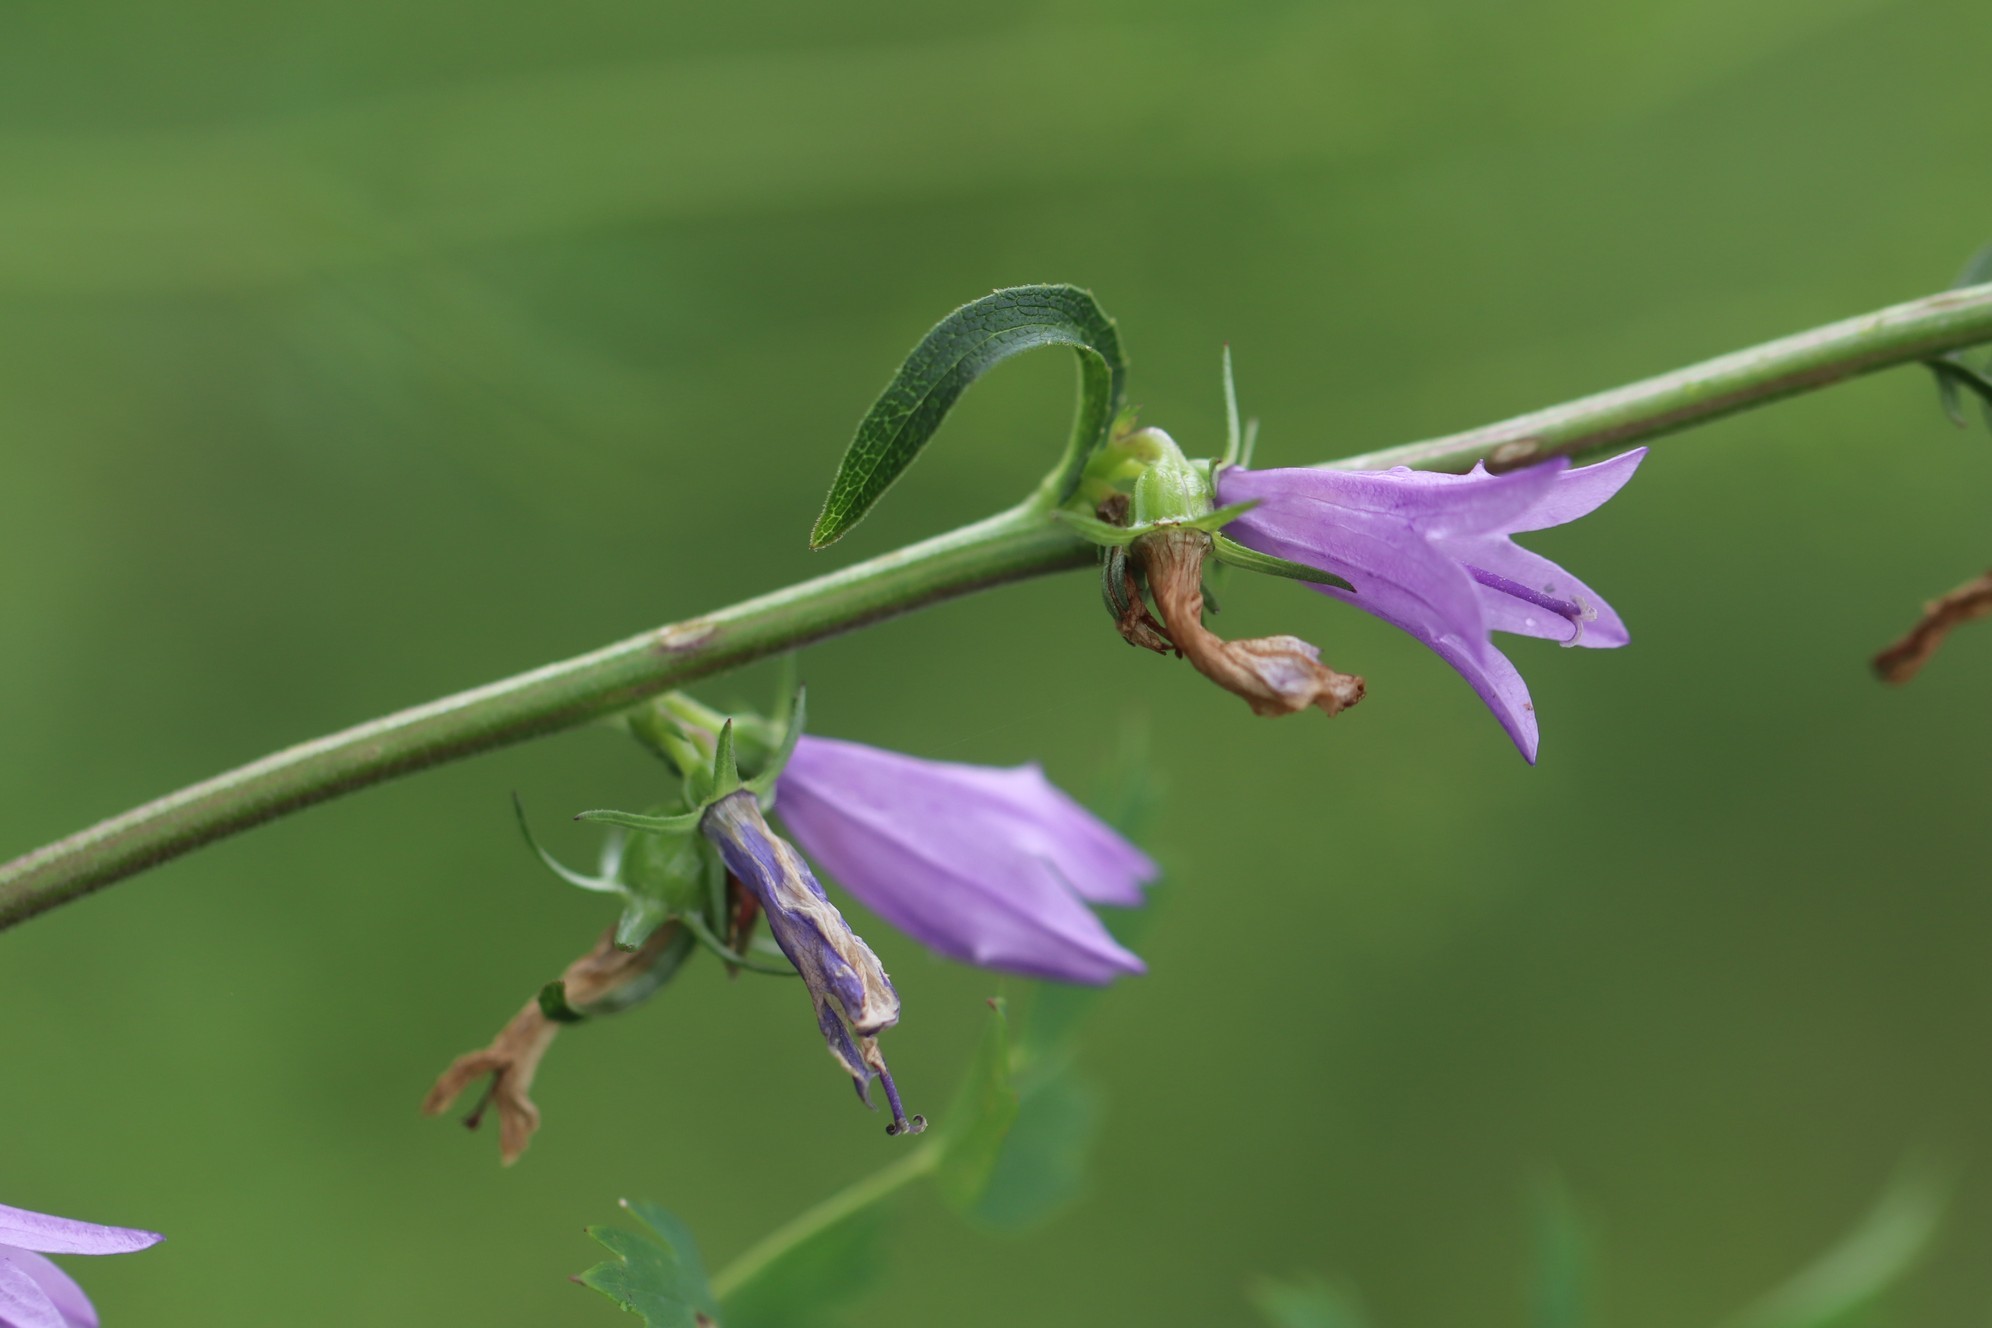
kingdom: Plantae
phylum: Tracheophyta
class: Magnoliopsida
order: Asterales
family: Campanulaceae
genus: Campanula
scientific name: Campanula bononiensis
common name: Pale bellflower
